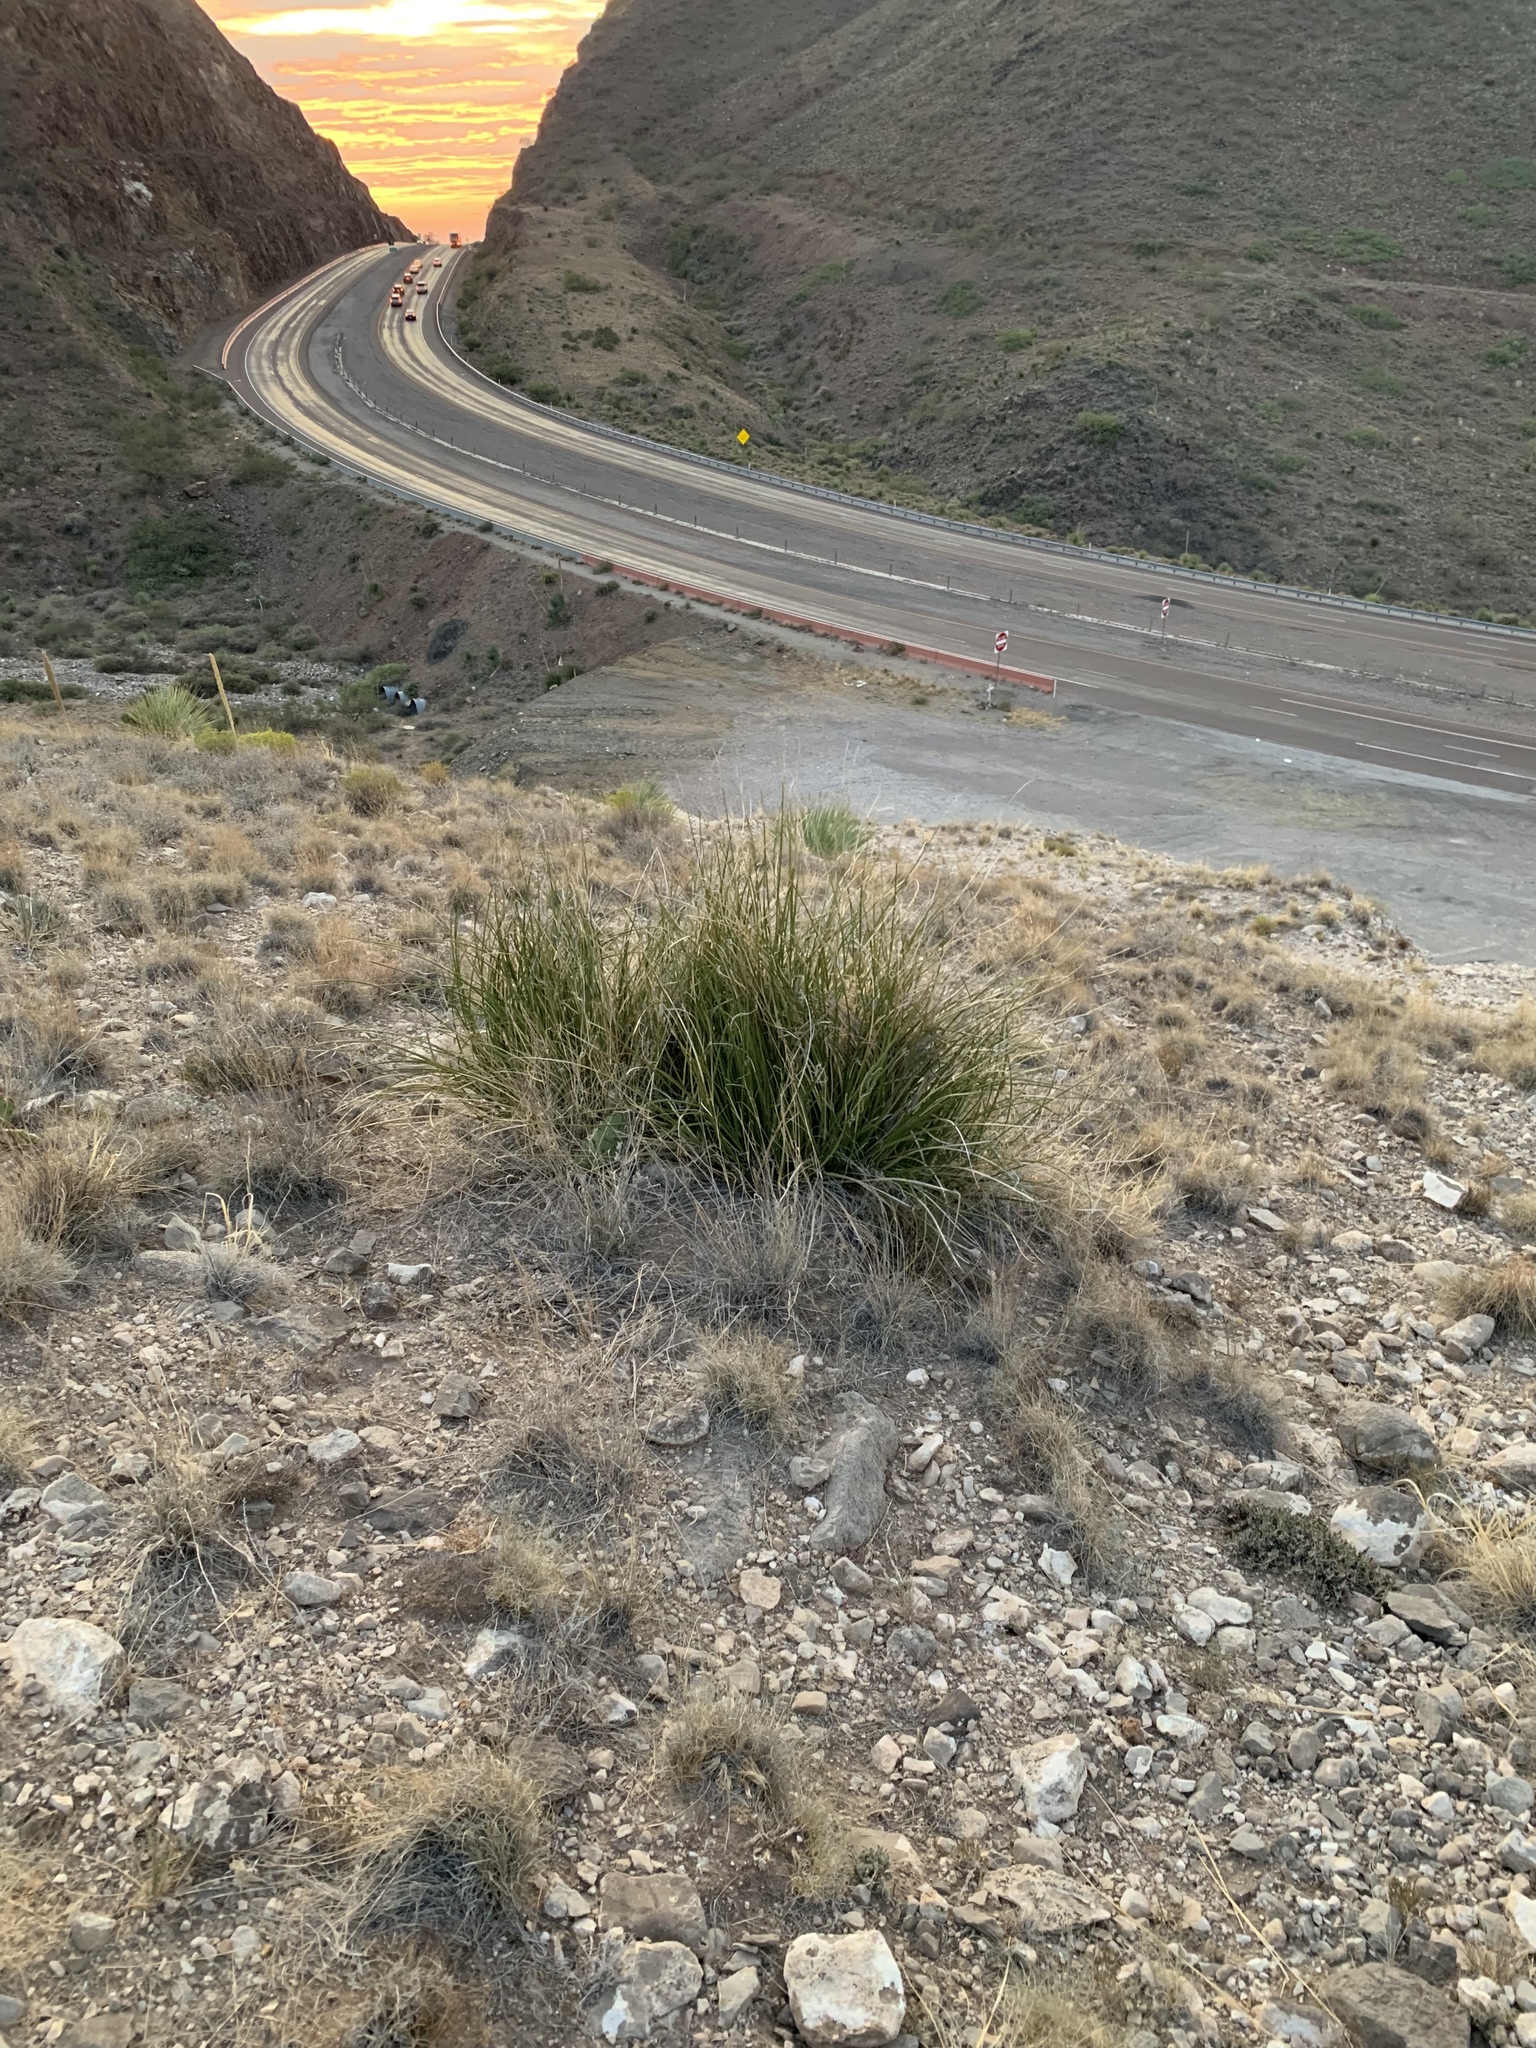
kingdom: Plantae
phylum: Tracheophyta
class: Liliopsida
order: Asparagales
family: Asparagaceae
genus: Nolina
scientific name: Nolina texana
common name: Texas sacahuiste
